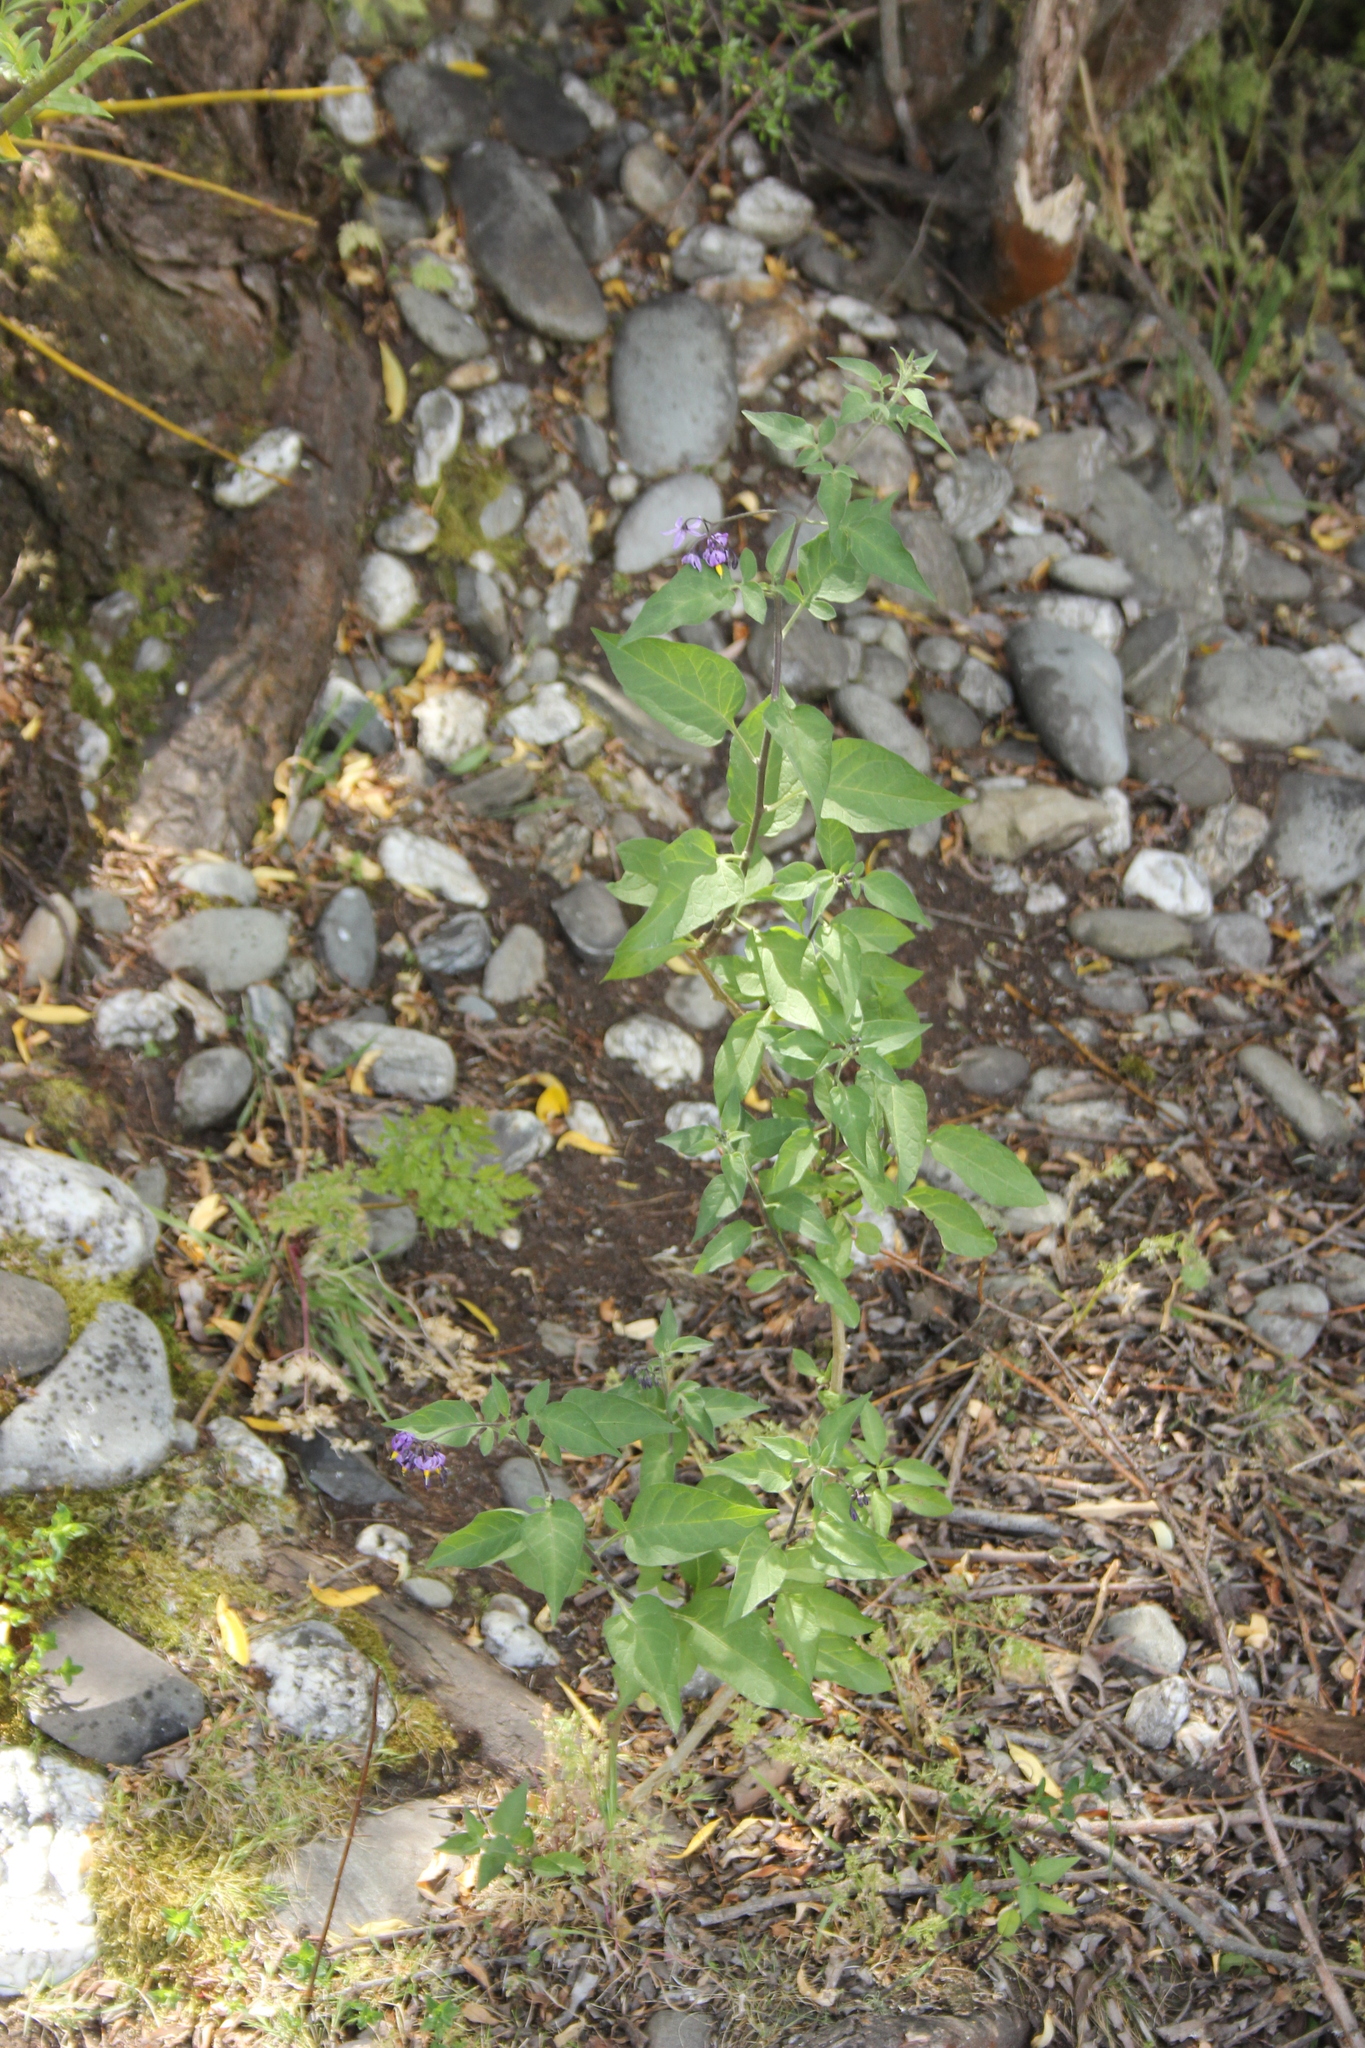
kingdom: Plantae
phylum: Tracheophyta
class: Magnoliopsida
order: Solanales
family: Solanaceae
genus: Solanum
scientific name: Solanum dulcamara
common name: Climbing nightshade
